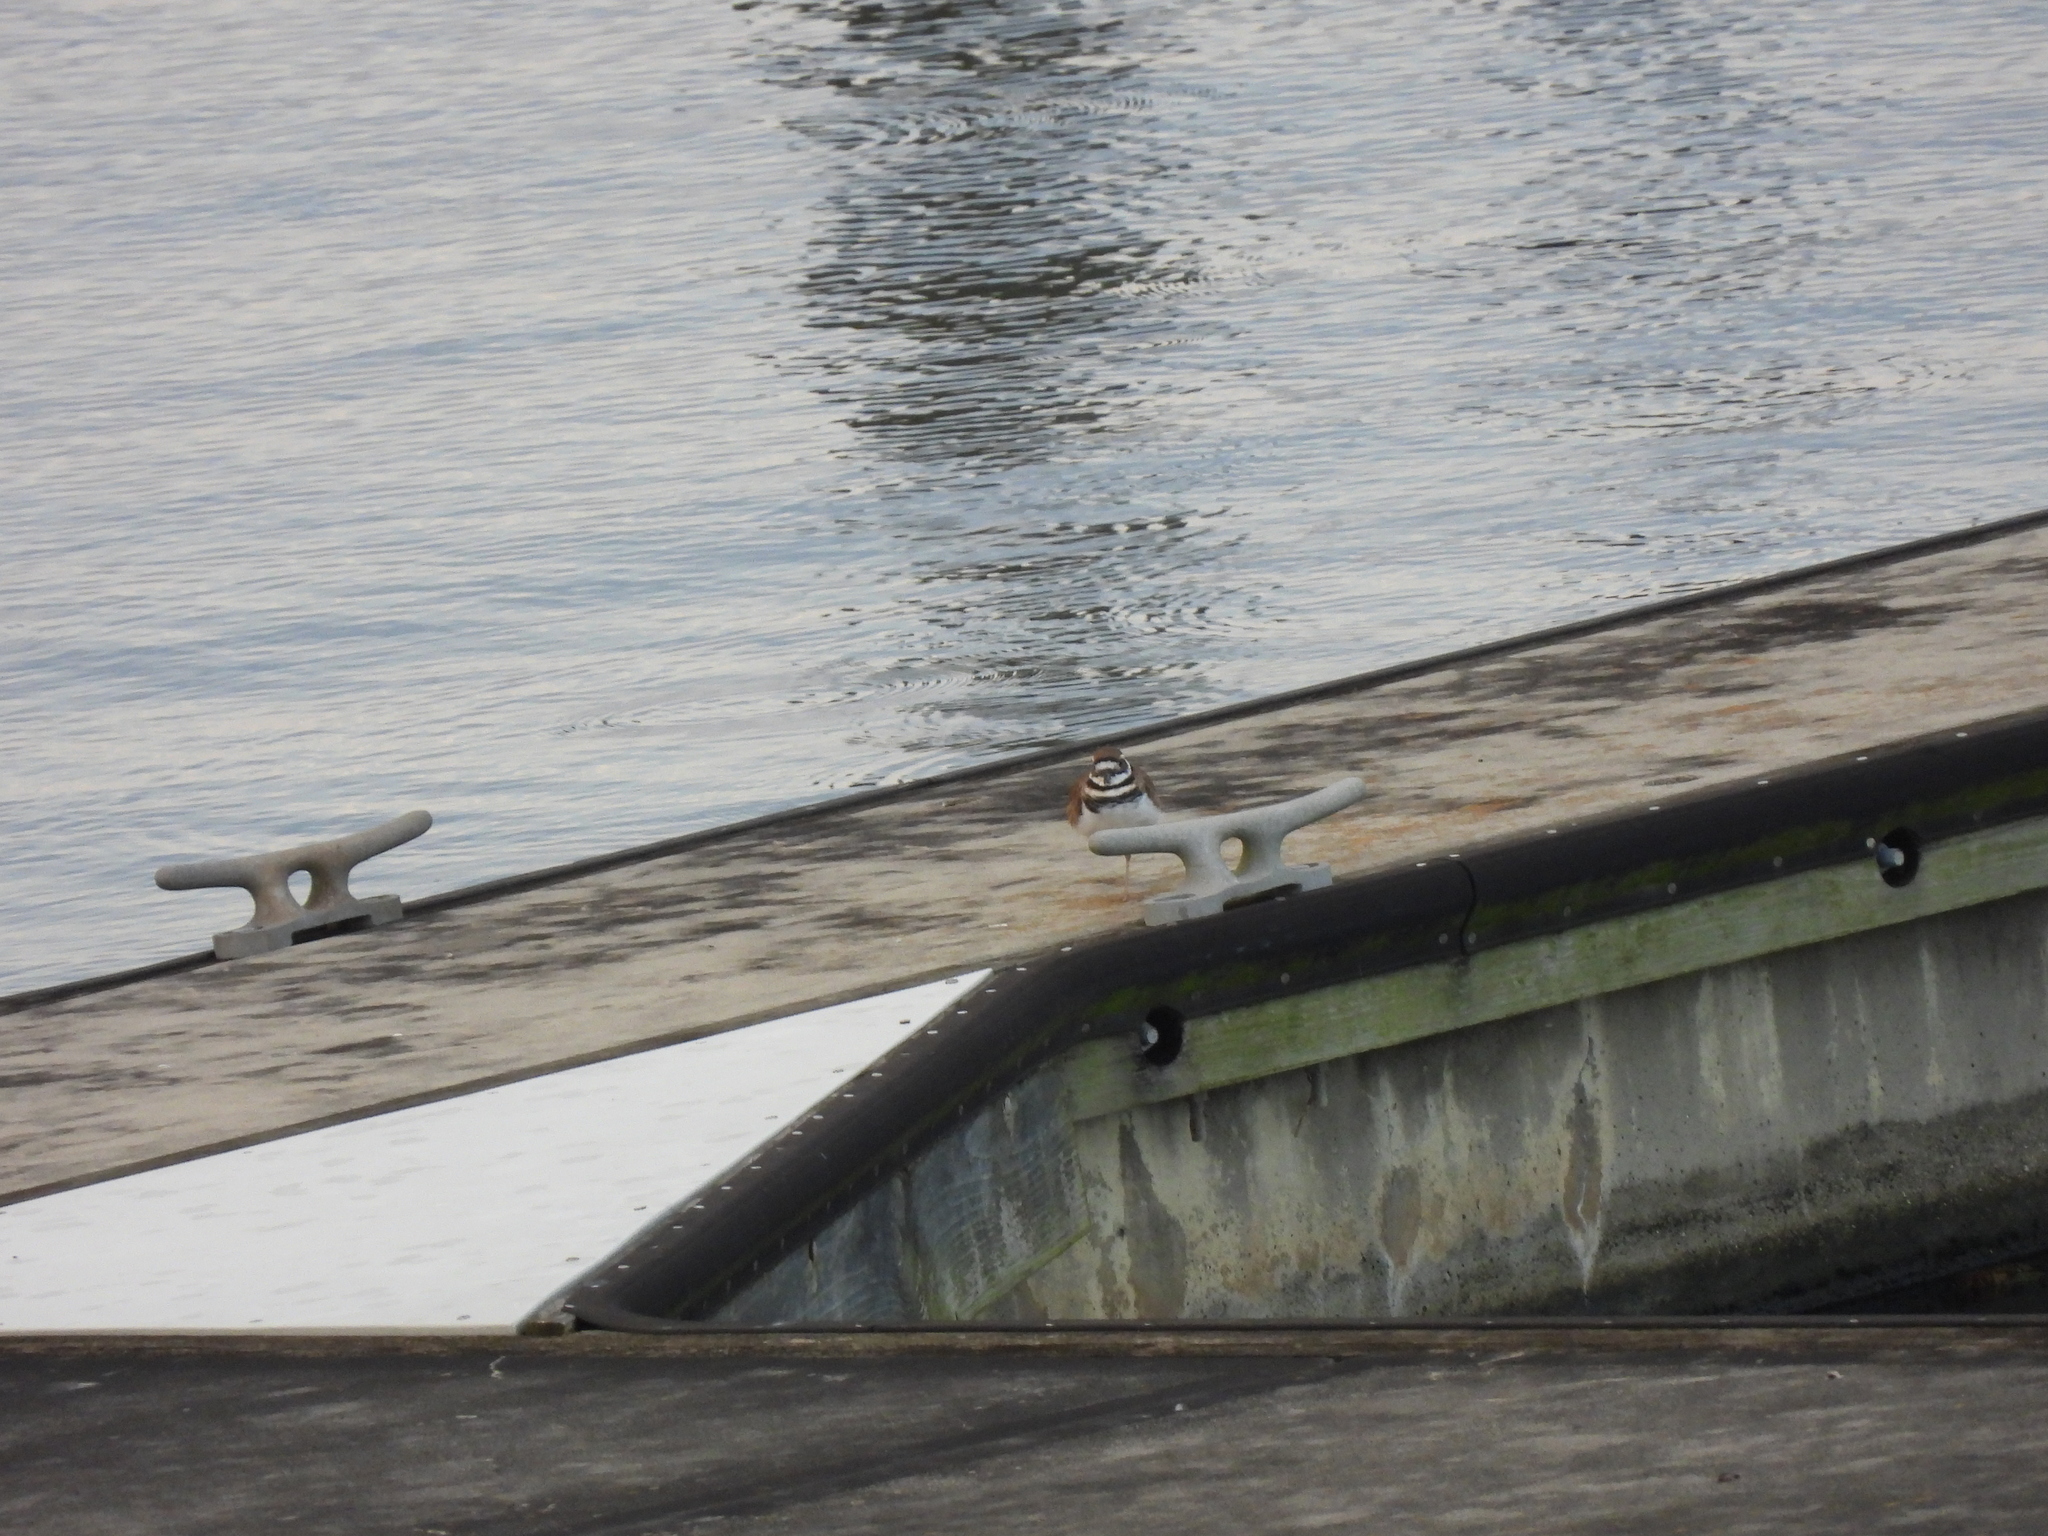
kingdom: Animalia
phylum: Chordata
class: Aves
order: Charadriiformes
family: Charadriidae
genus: Charadrius
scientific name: Charadrius vociferus
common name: Killdeer
